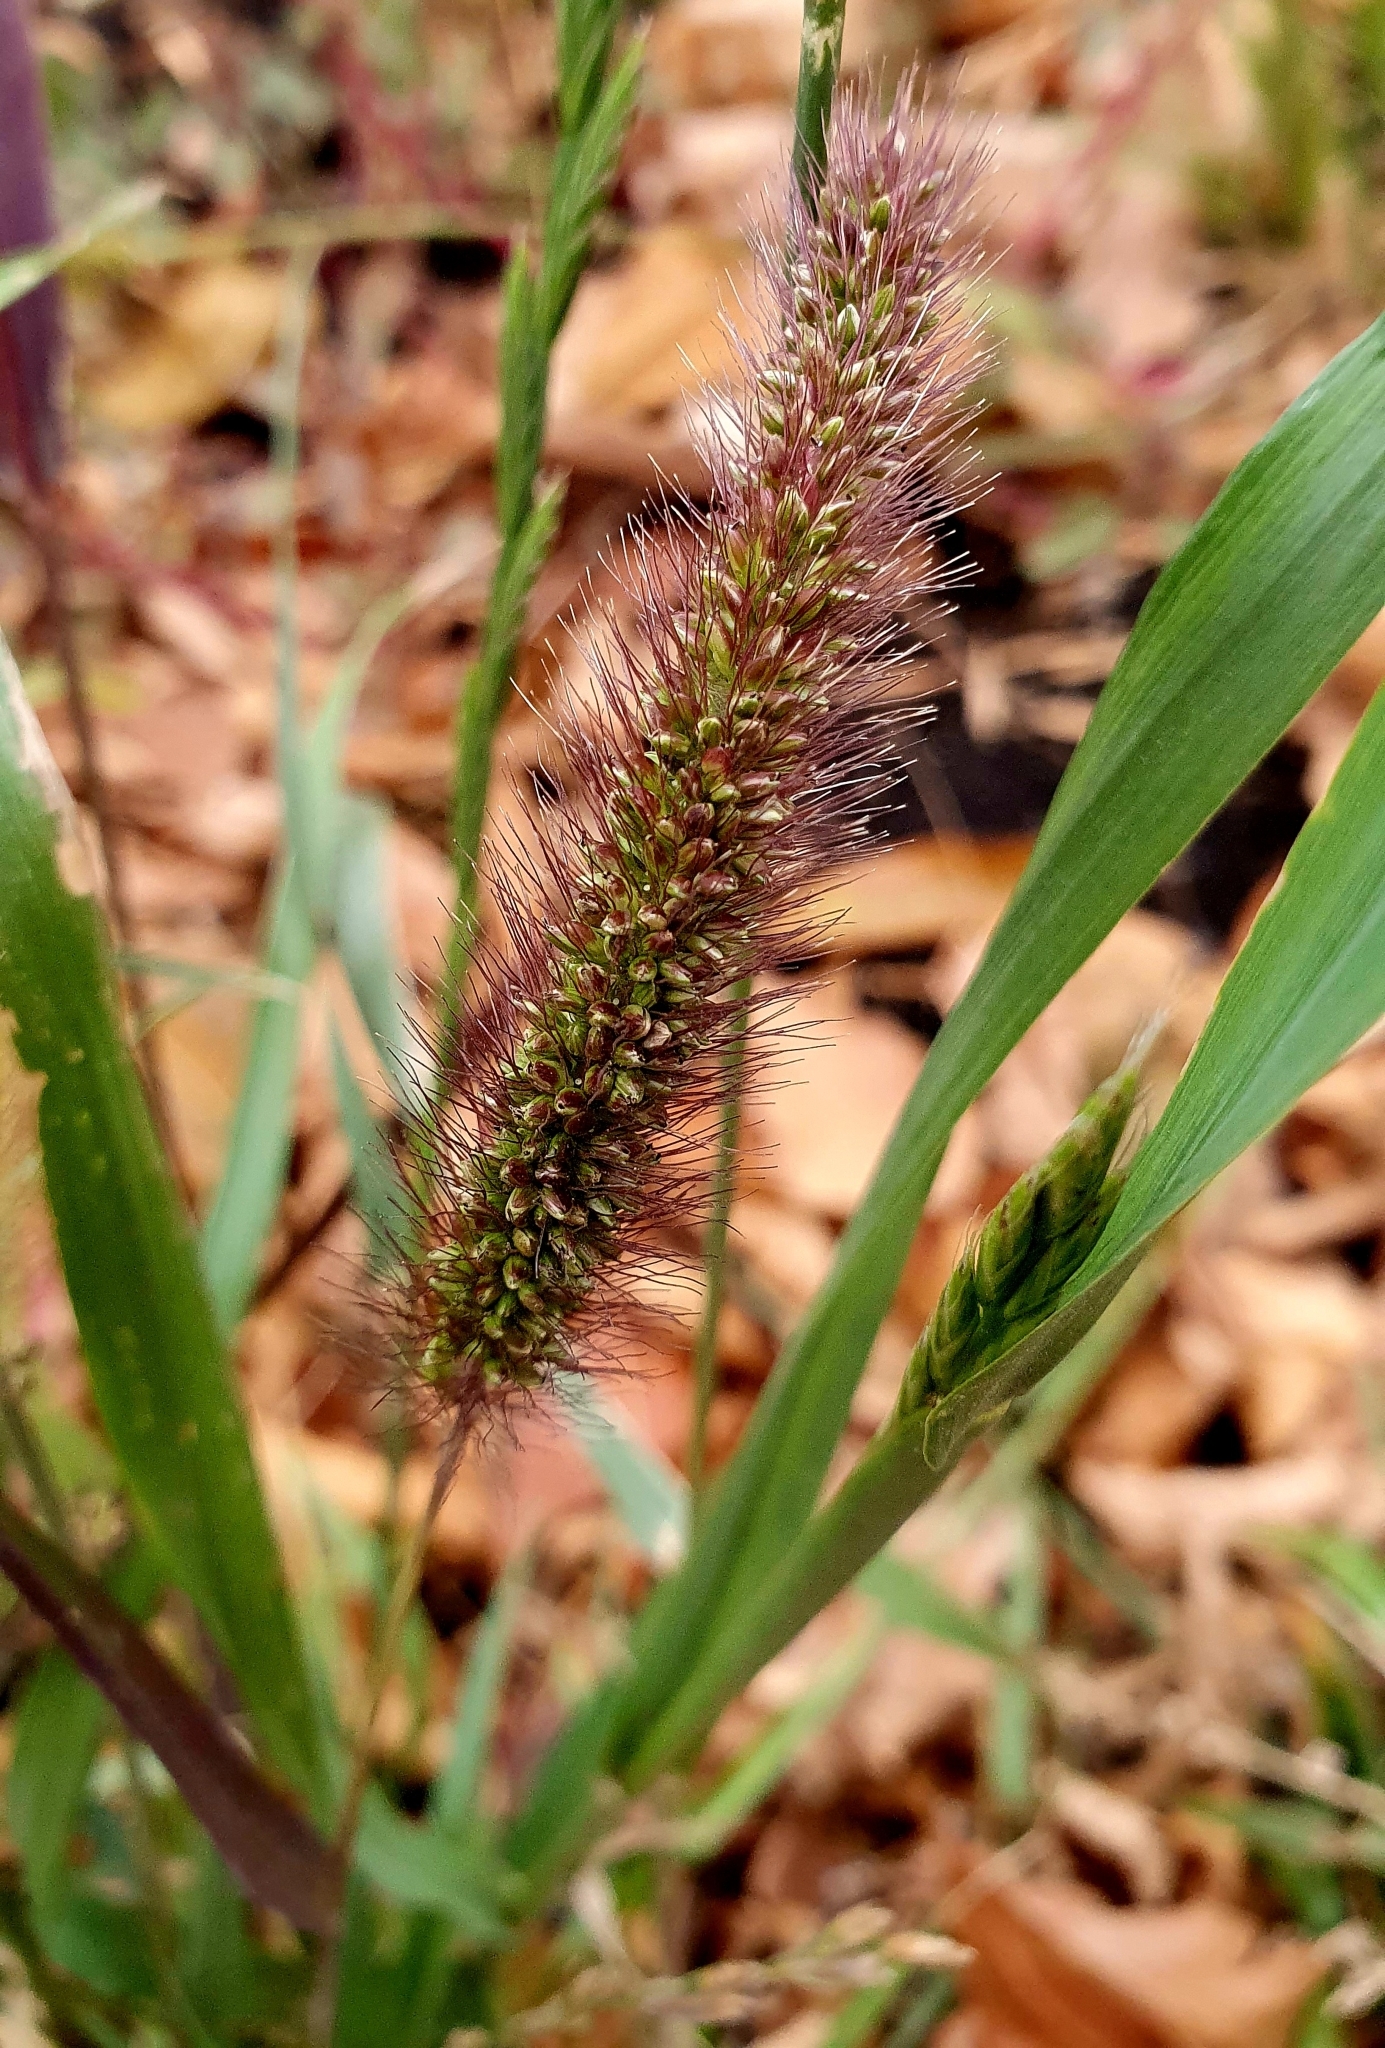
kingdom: Plantae
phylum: Tracheophyta
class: Liliopsida
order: Poales
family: Poaceae
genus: Setaria
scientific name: Setaria viridis
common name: Green bristlegrass
